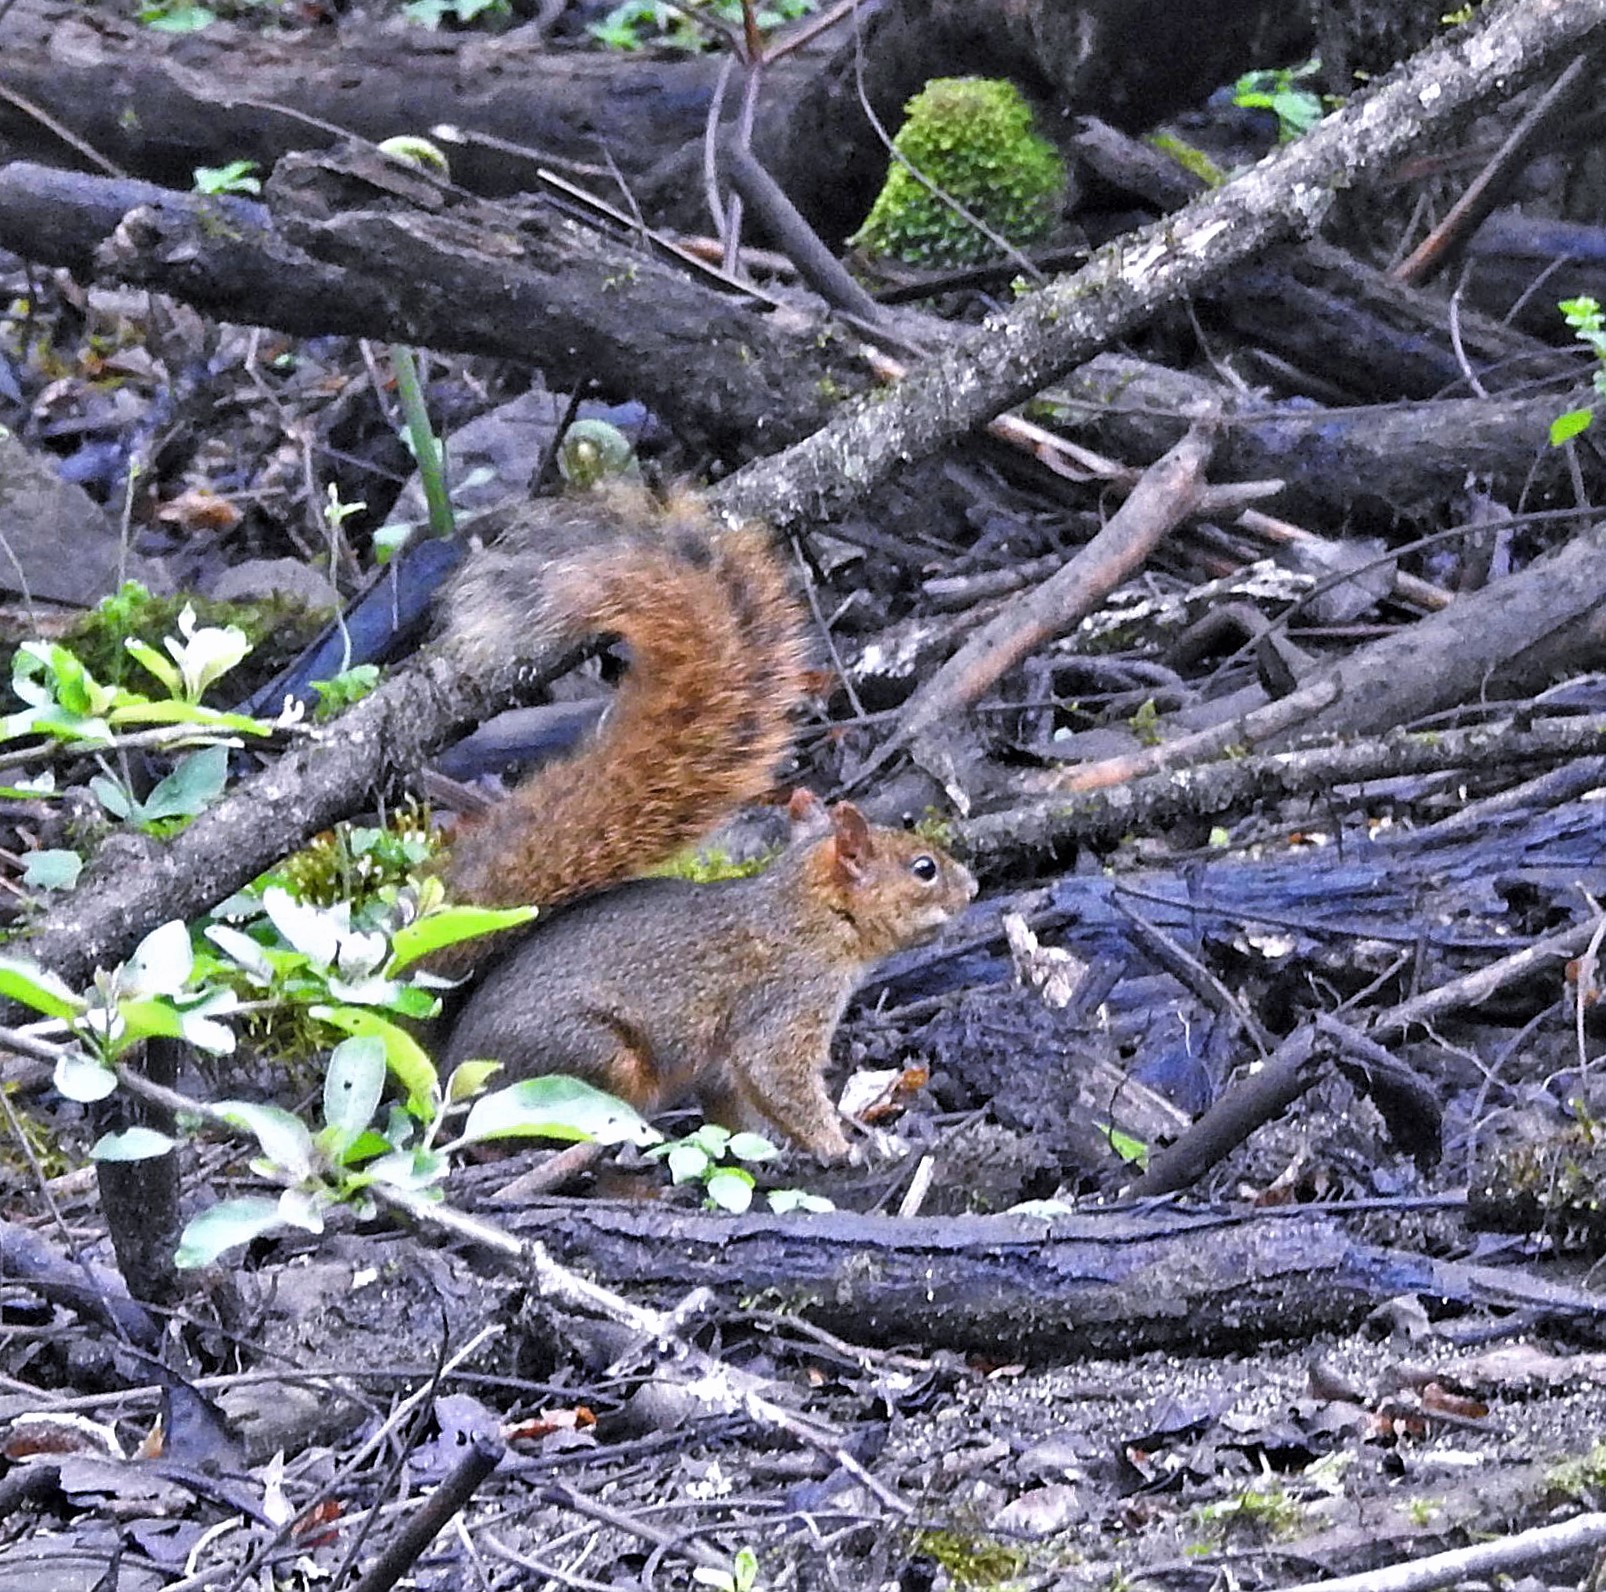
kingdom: Animalia
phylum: Chordata
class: Mammalia
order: Rodentia
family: Sciuridae
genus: Sciurus
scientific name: Sciurus ignitus
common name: Bolivian squirrel
